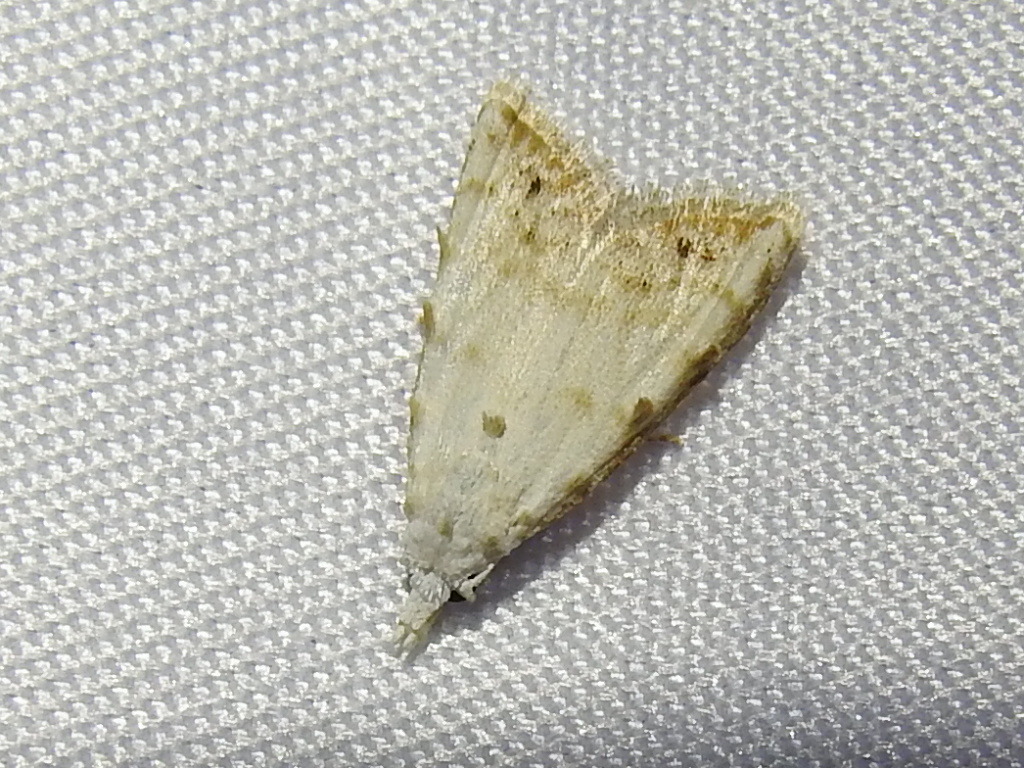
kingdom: Animalia
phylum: Arthropoda
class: Insecta
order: Lepidoptera
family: Nolidae
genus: Nola
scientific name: Nola cereella
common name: Sorghum webworm moth
